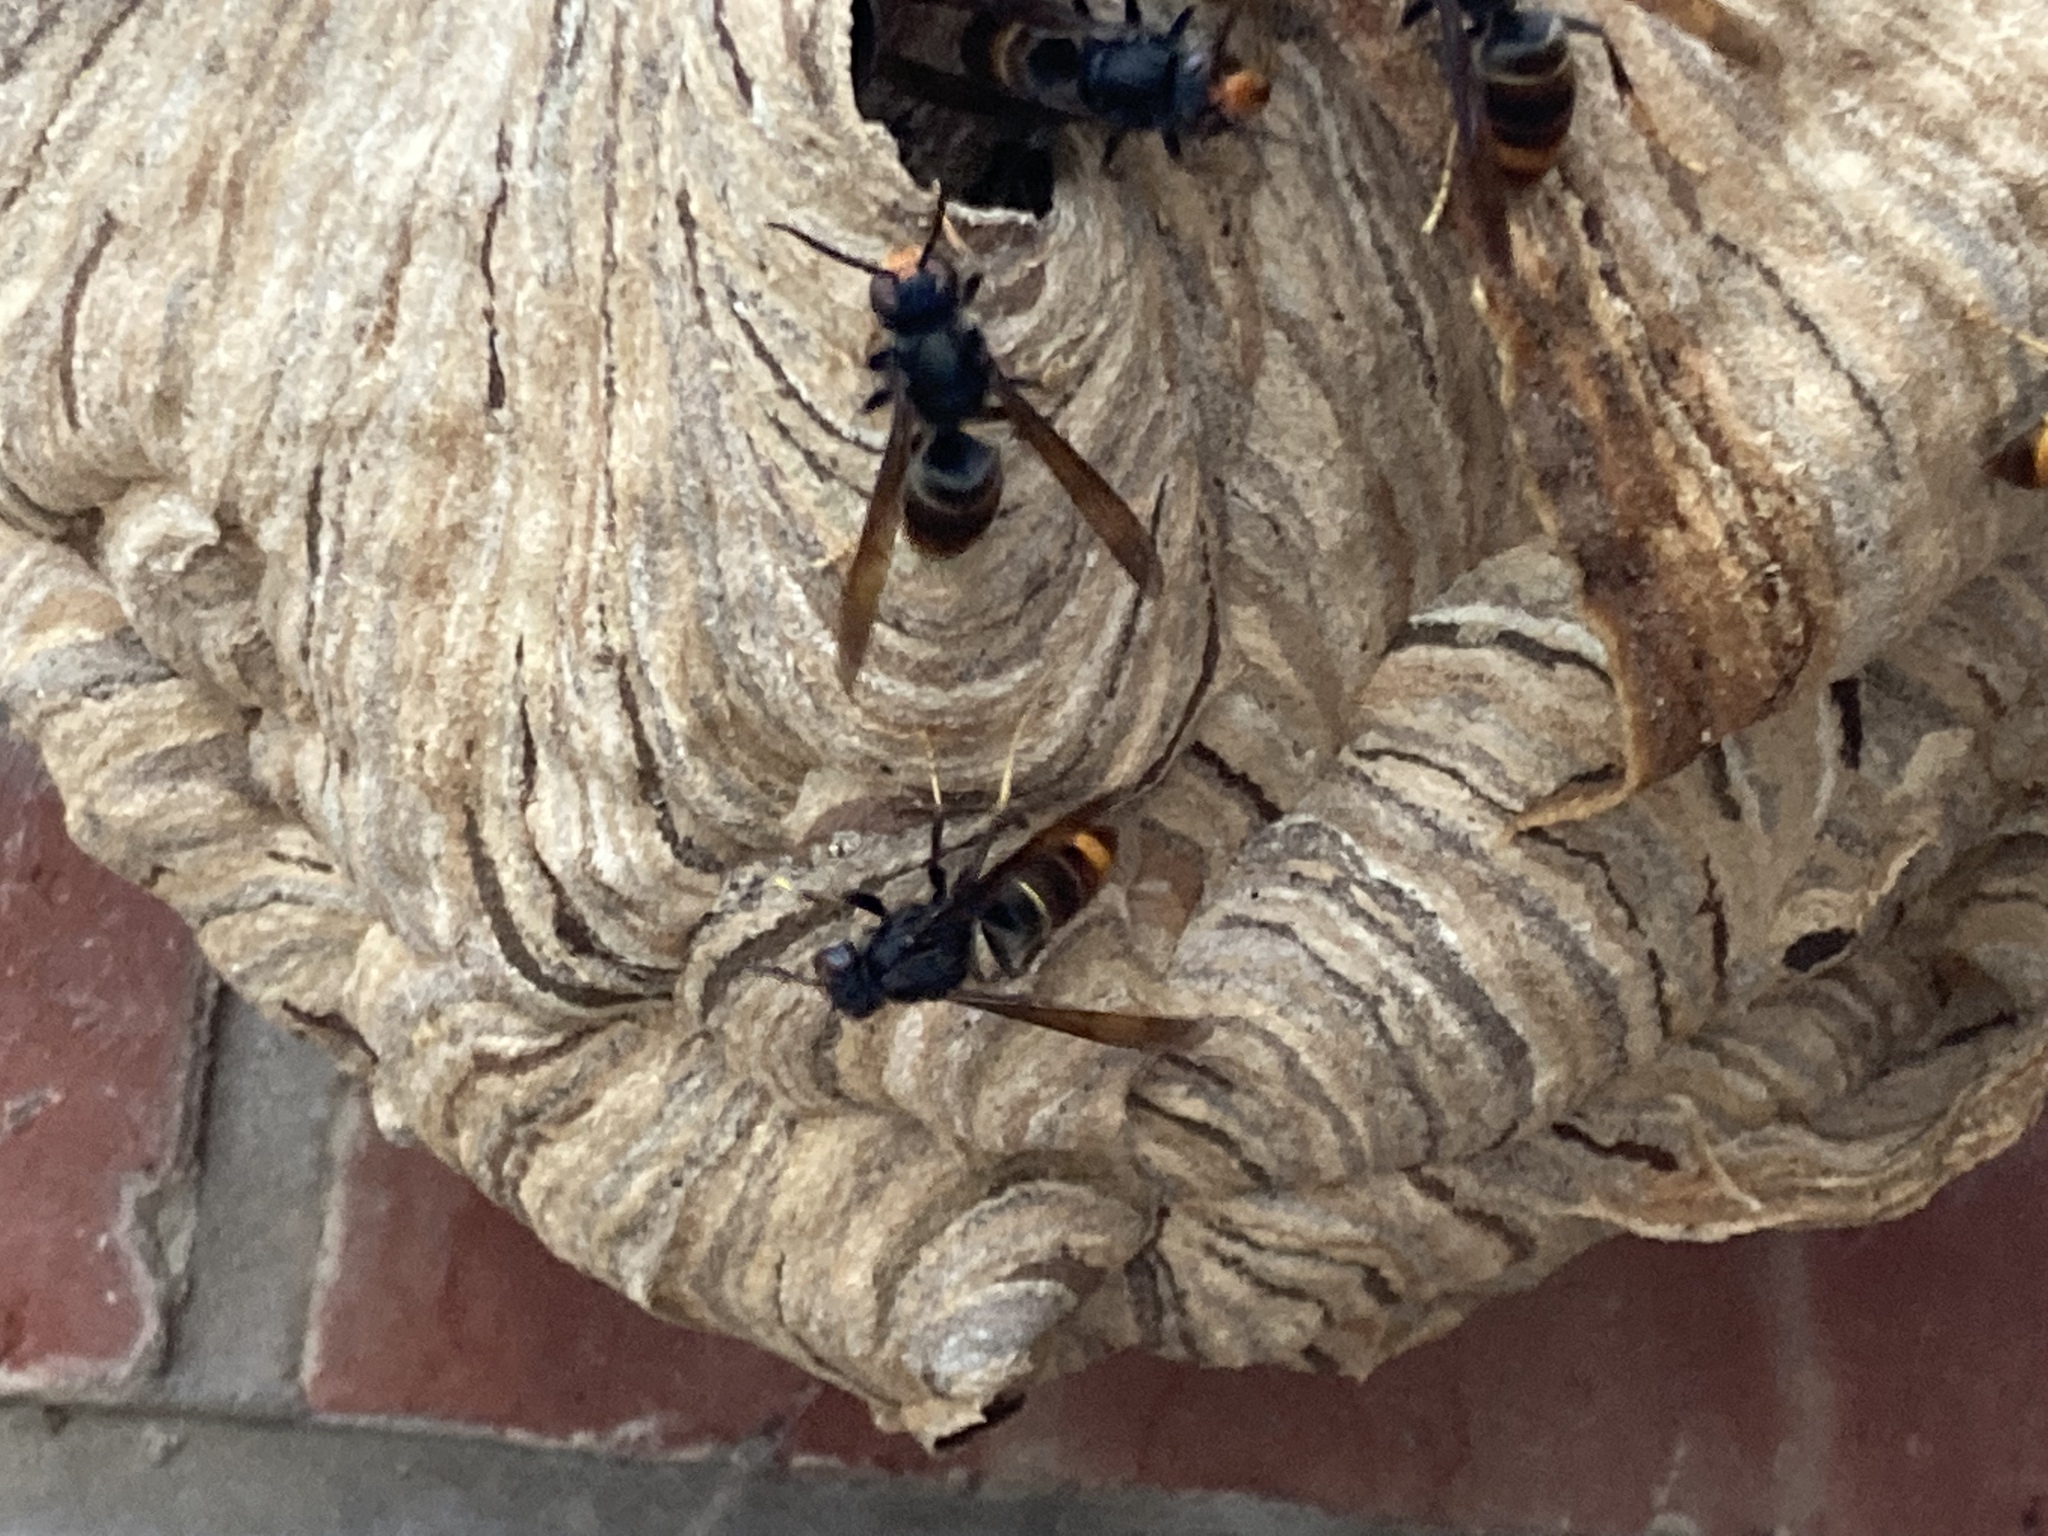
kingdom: Animalia
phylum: Arthropoda
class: Insecta
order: Hymenoptera
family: Vespidae
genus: Vespa
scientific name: Vespa velutina
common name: Asian hornet
